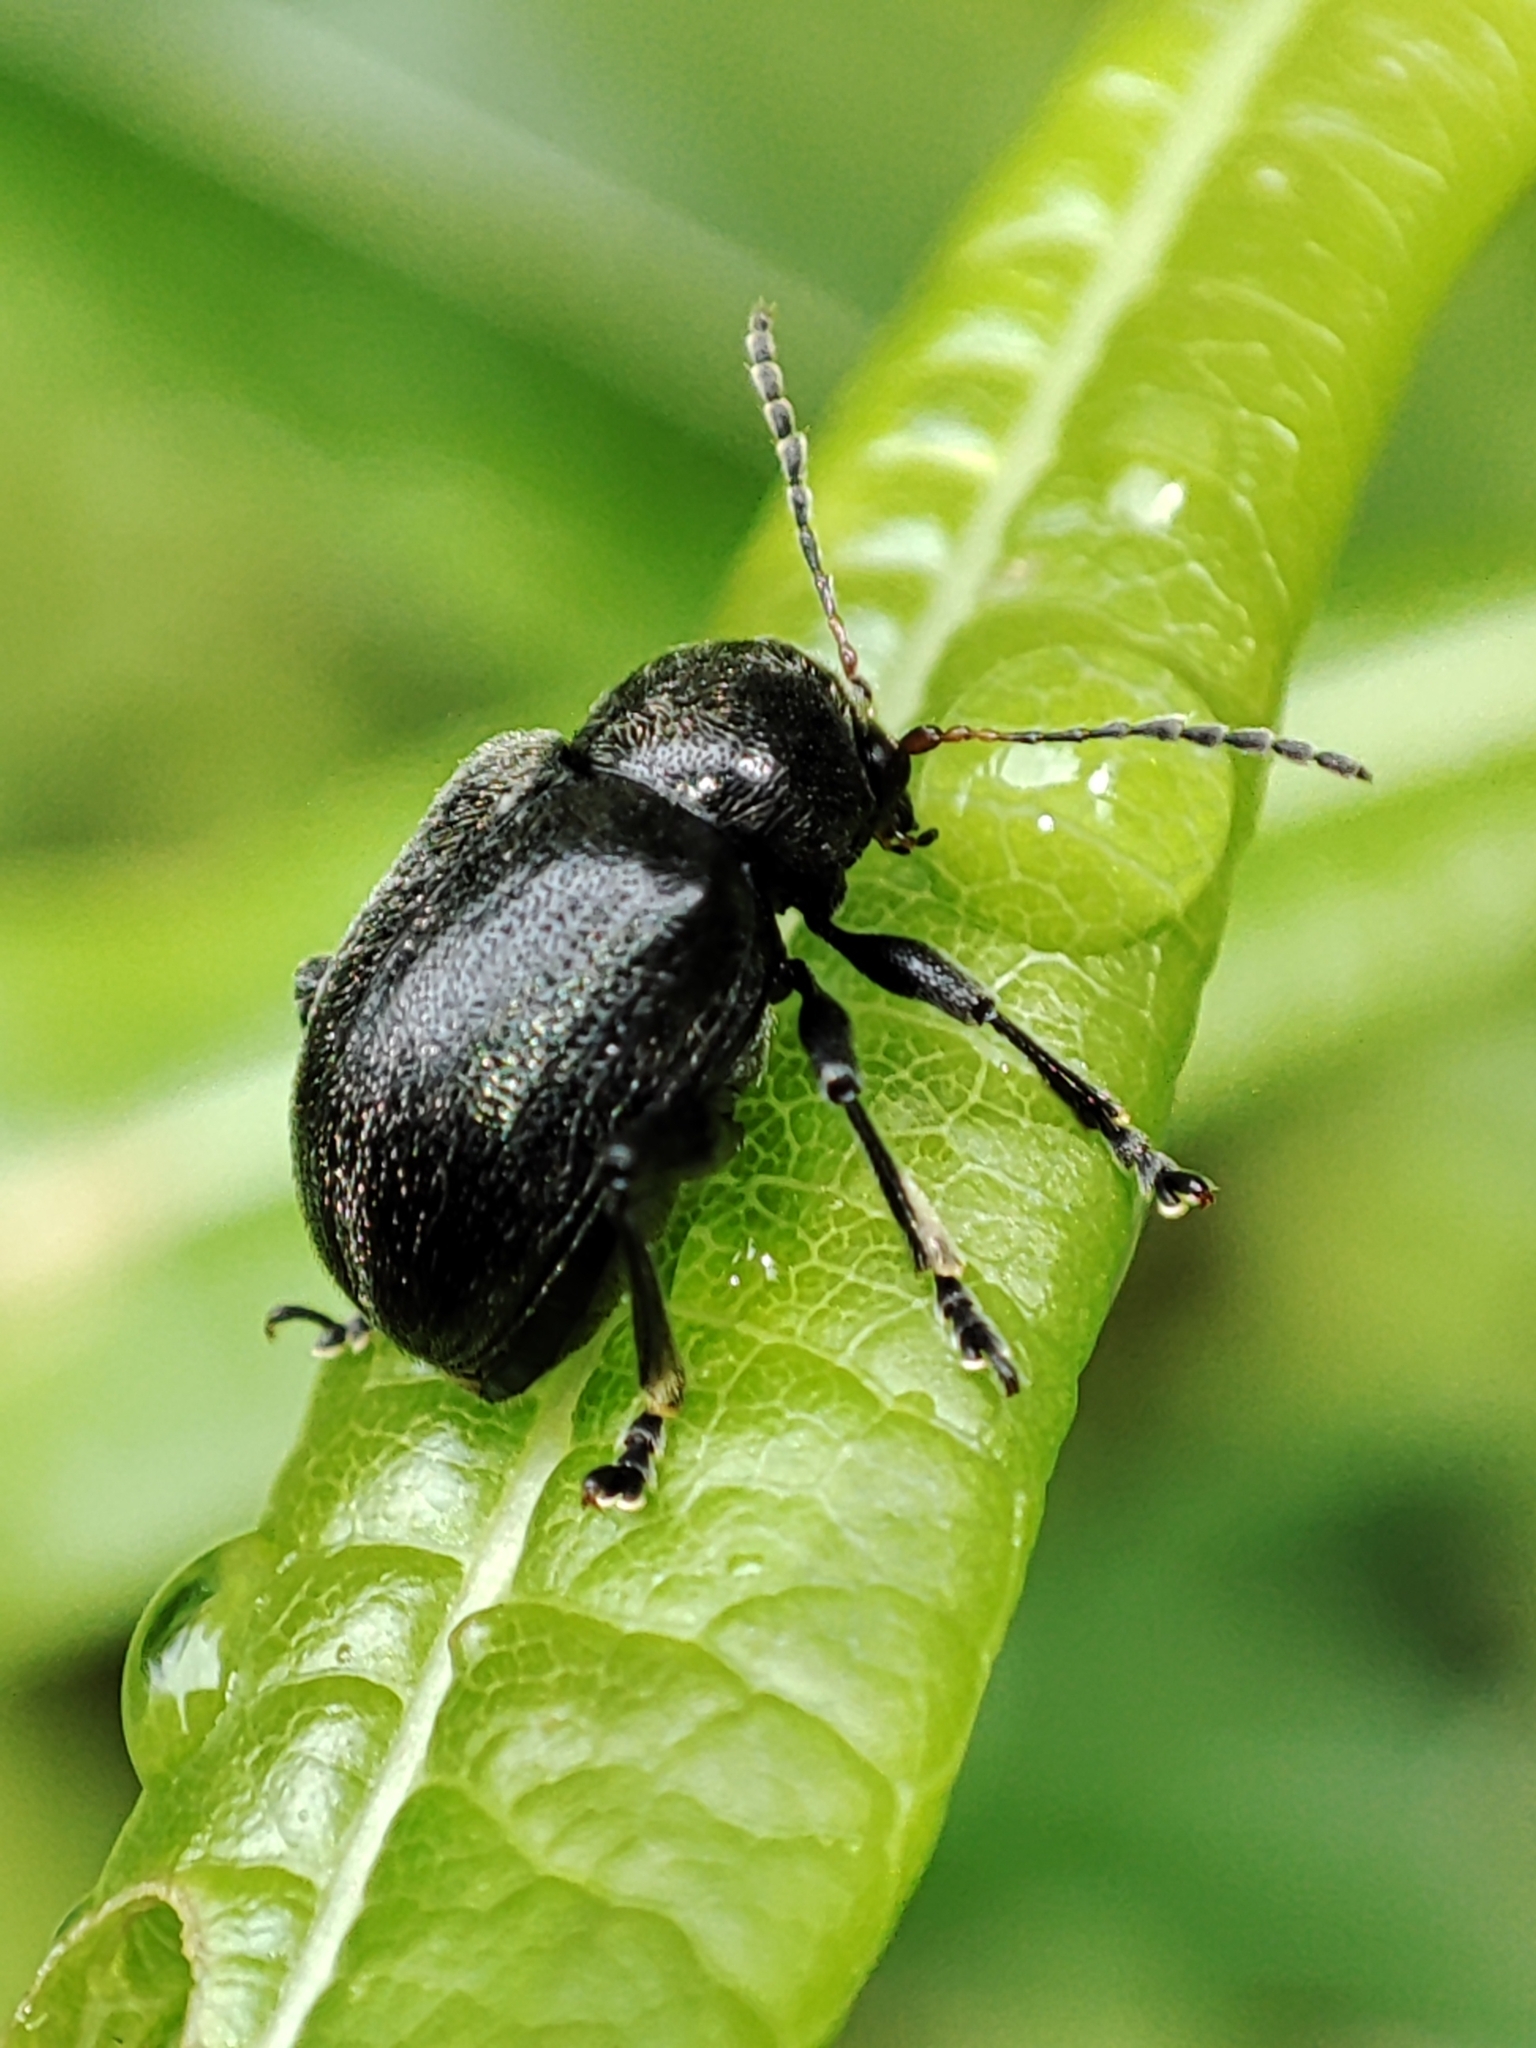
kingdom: Animalia
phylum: Arthropoda
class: Insecta
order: Coleoptera
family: Chrysomelidae
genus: Bromius
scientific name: Bromius obscurus
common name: Western grape rootworm
